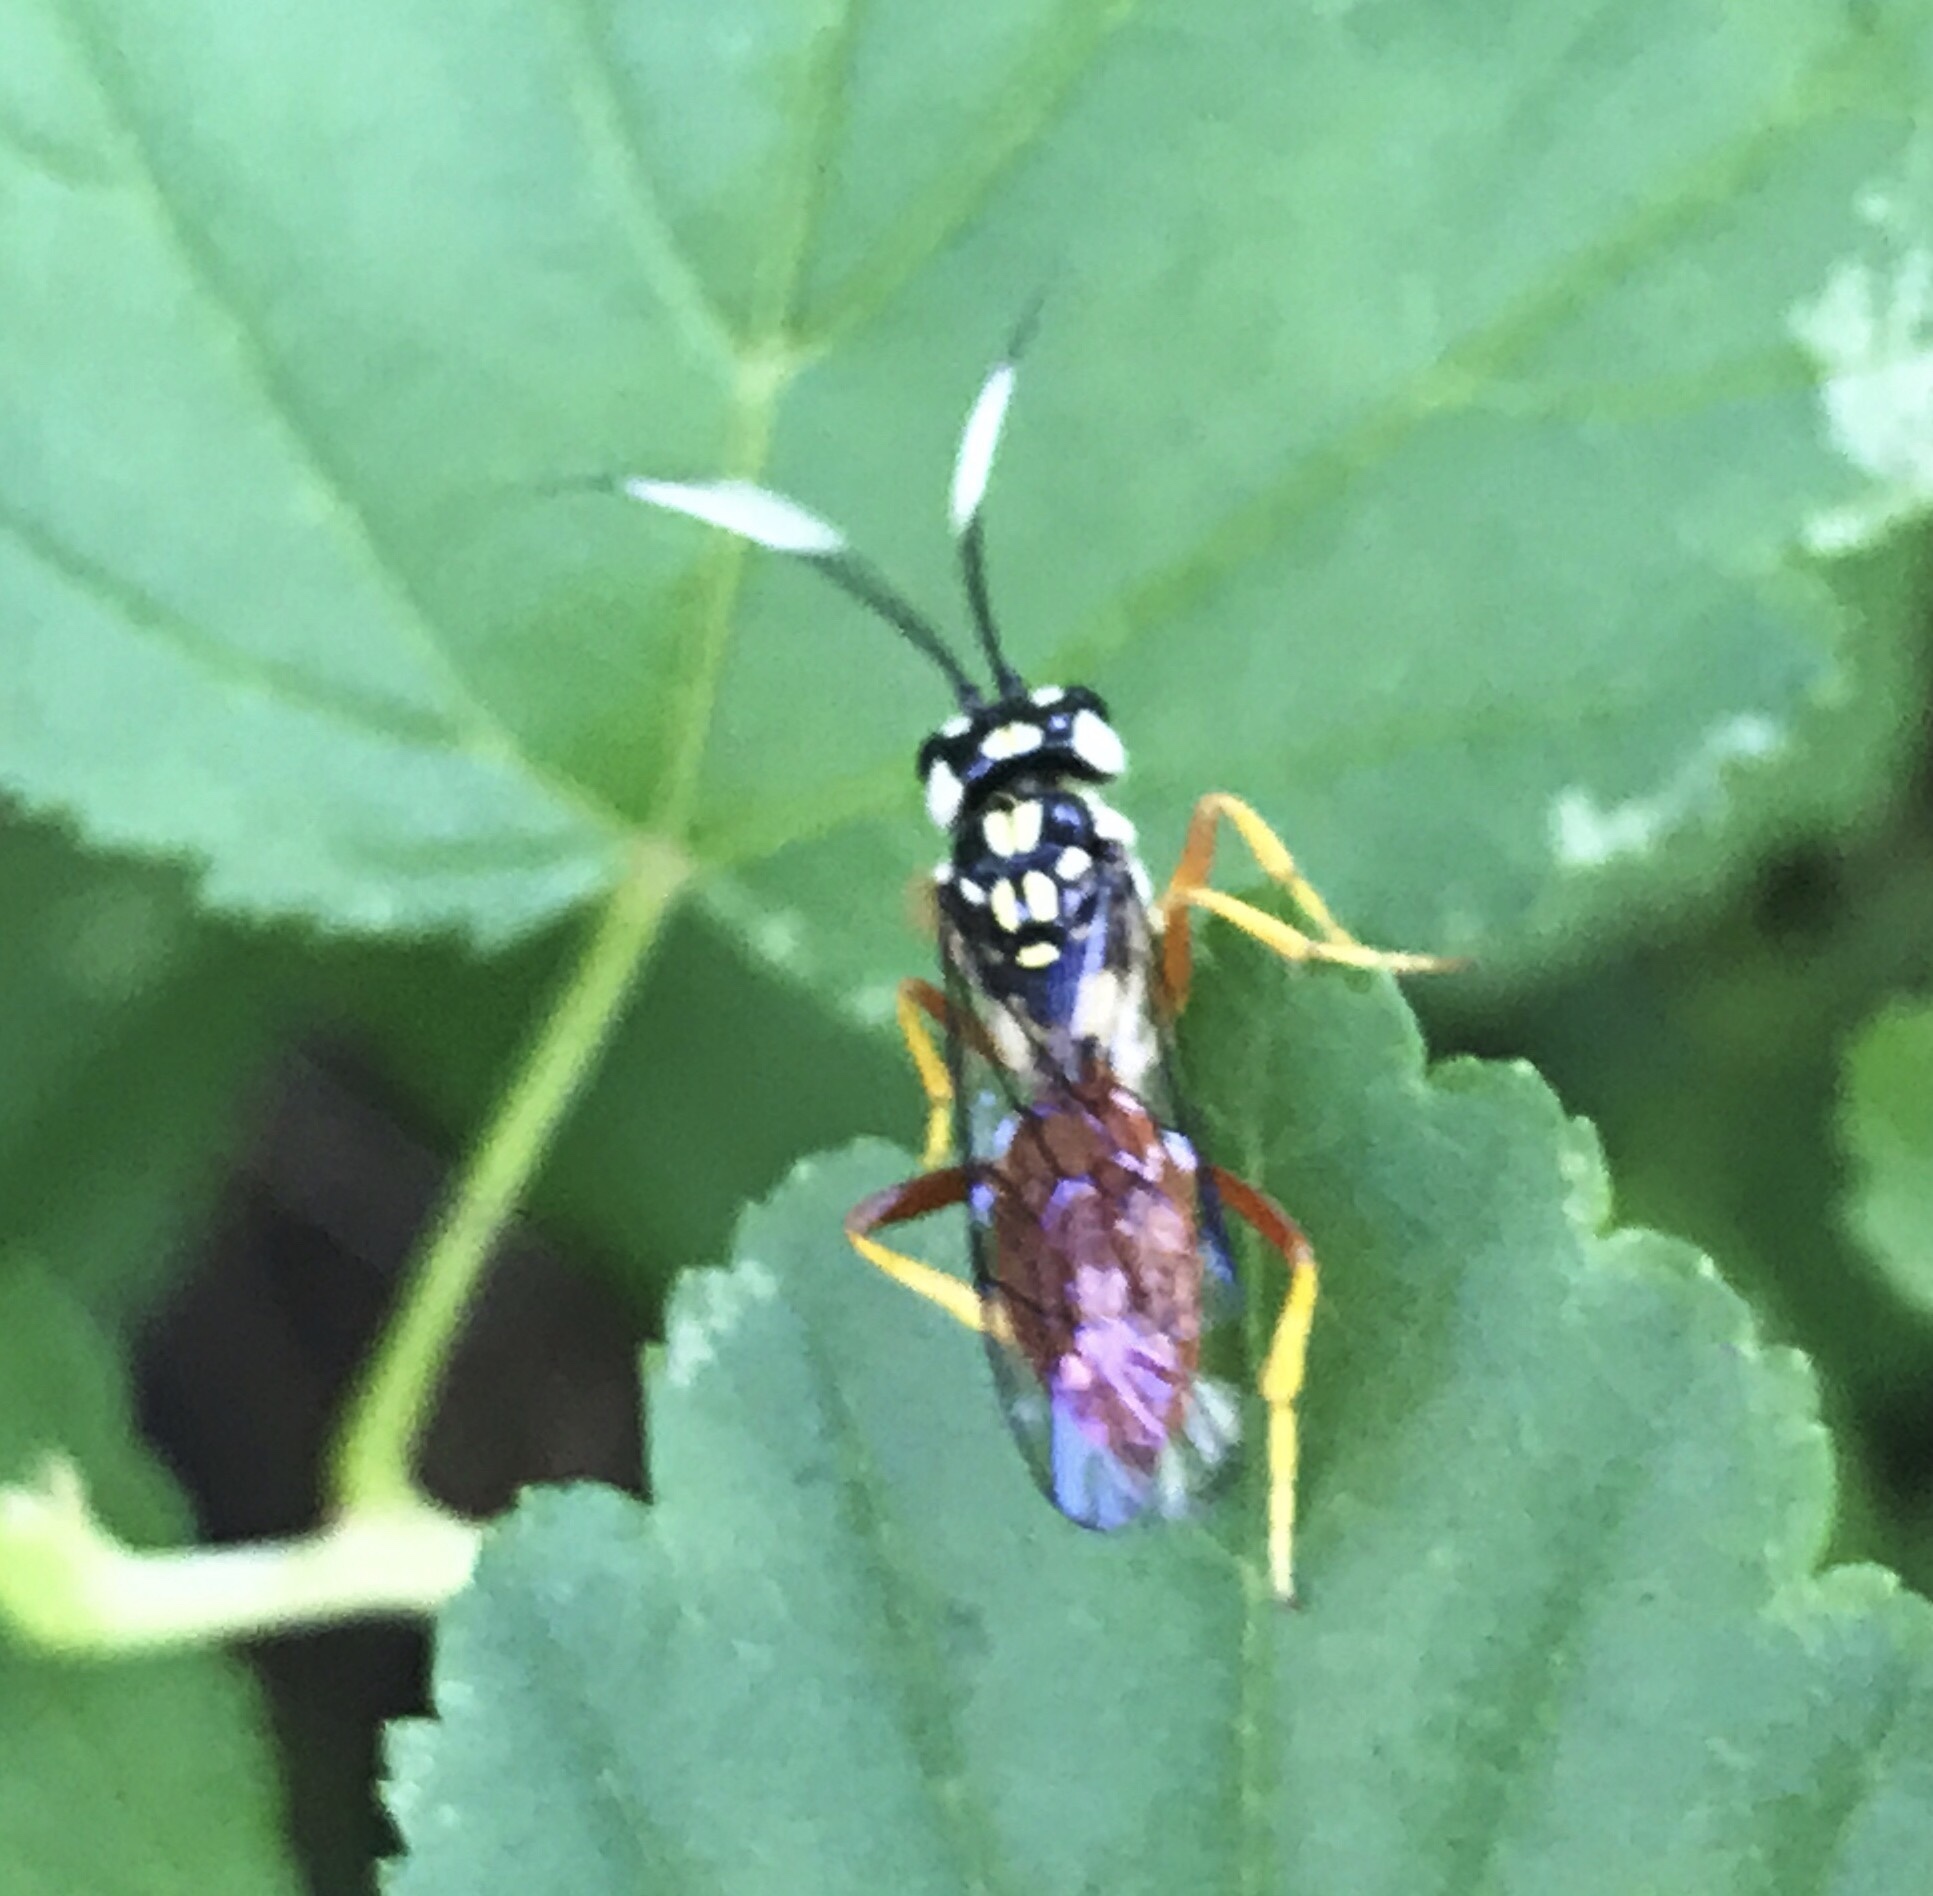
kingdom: Animalia
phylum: Arthropoda
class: Insecta
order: Hymenoptera
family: Trigonalidae
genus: Orthogonalys
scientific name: Orthogonalys pulchella
